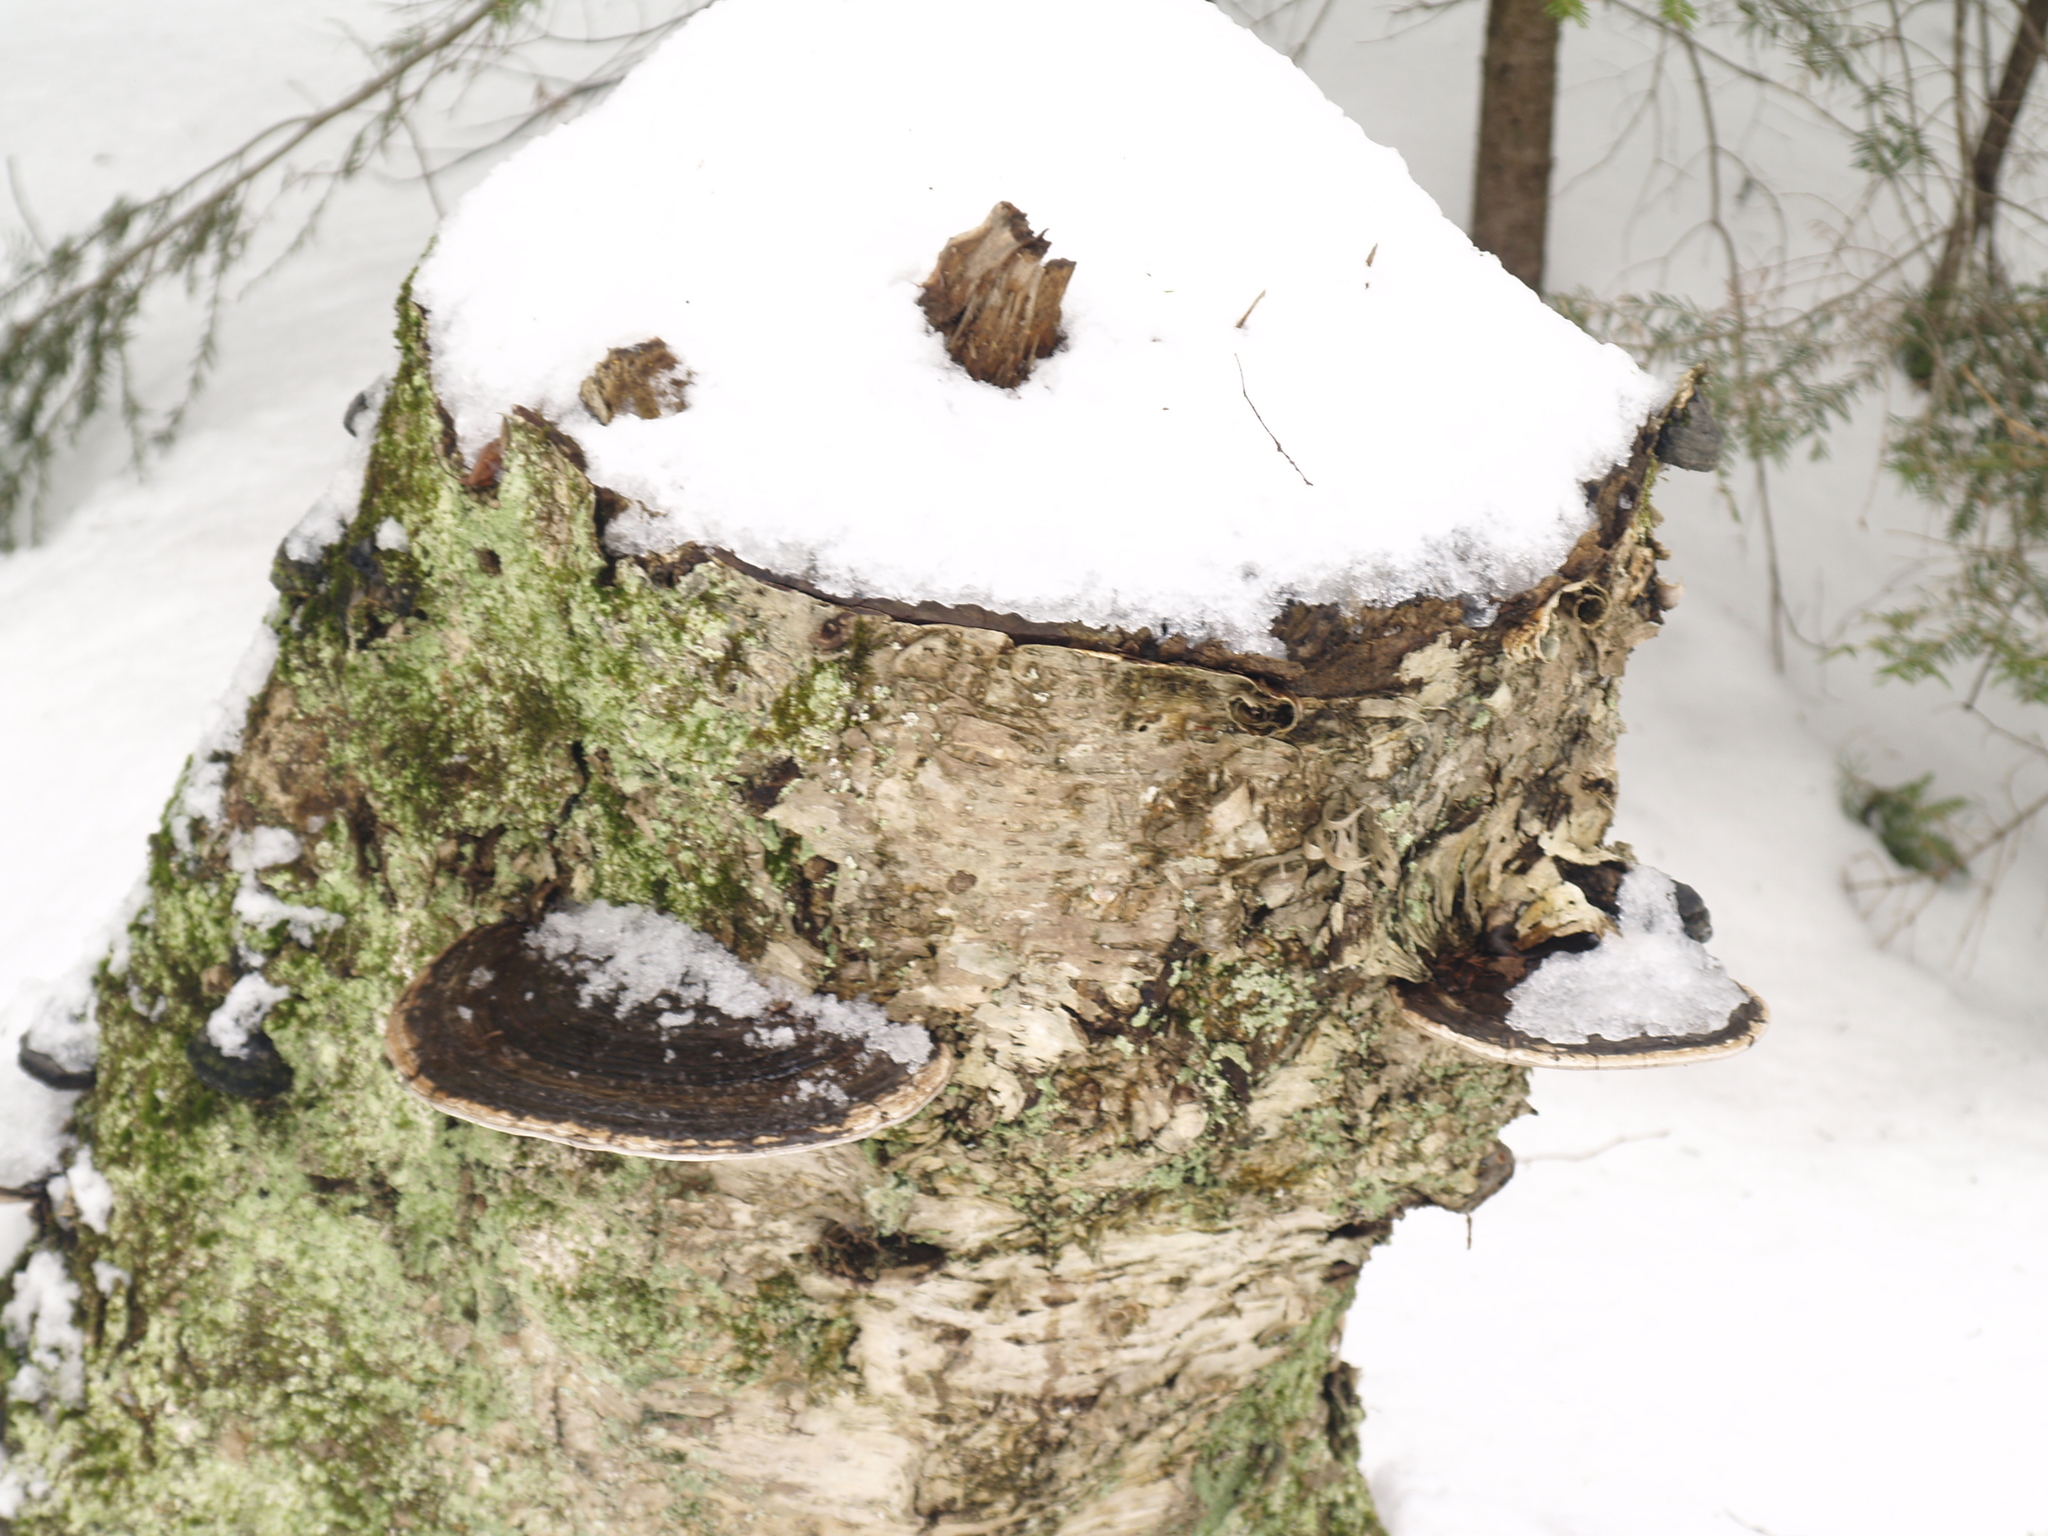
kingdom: Plantae
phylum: Tracheophyta
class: Magnoliopsida
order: Fagales
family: Betulaceae
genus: Betula
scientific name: Betula alleghaniensis
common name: Yellow birch
